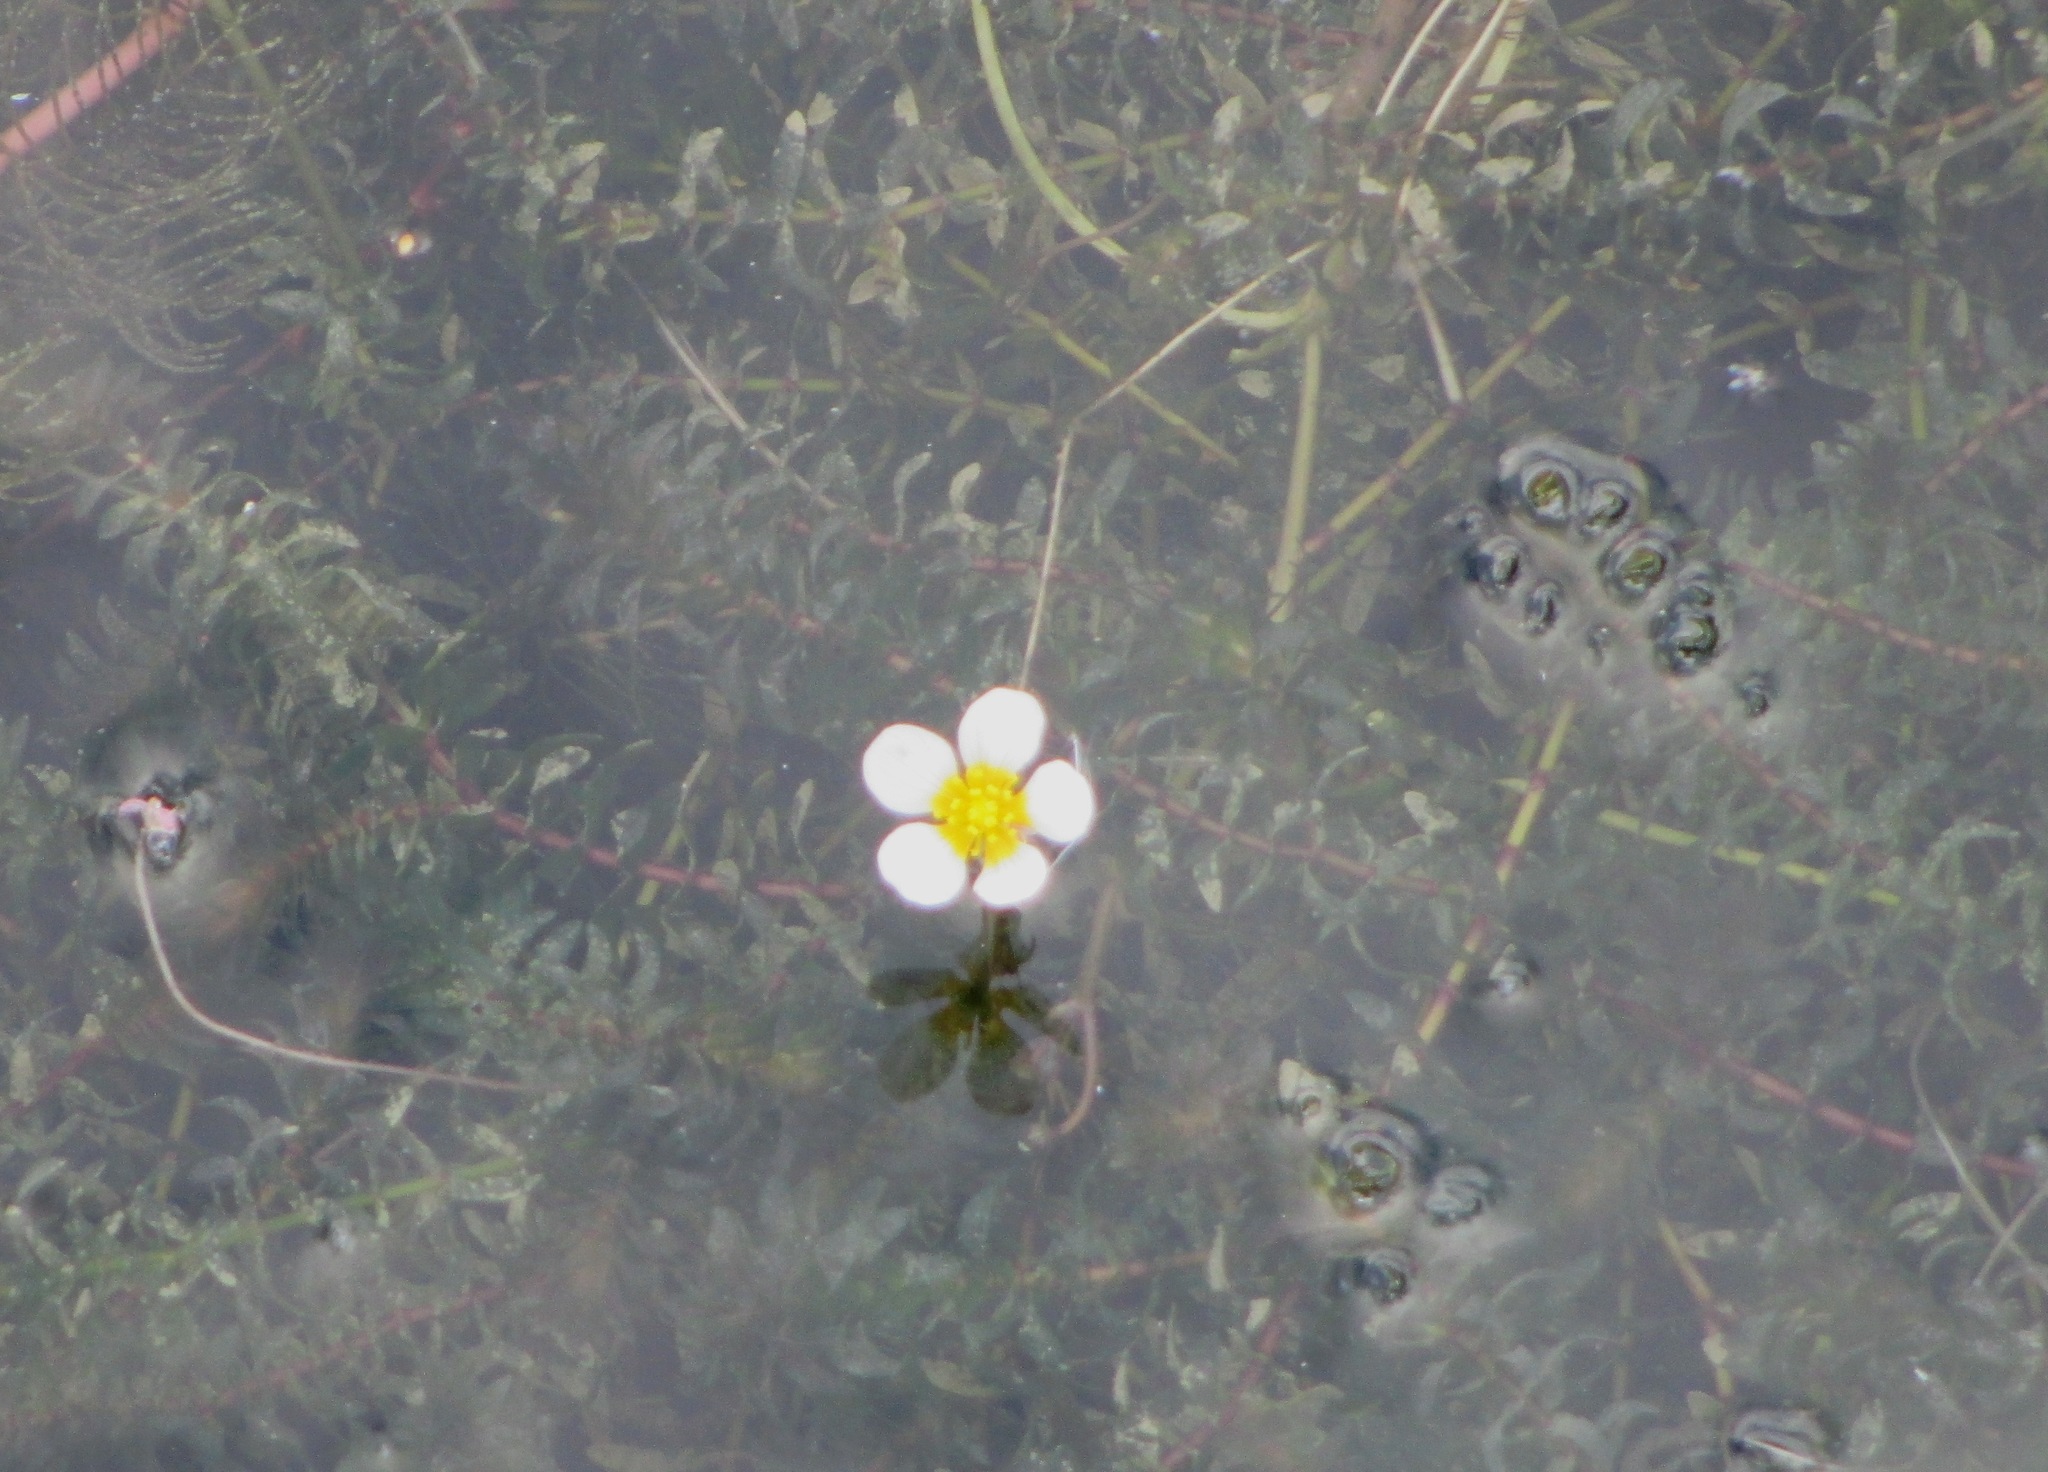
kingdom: Plantae
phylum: Tracheophyta
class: Magnoliopsida
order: Ranunculales
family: Ranunculaceae
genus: Ranunculus
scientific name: Ranunculus circinatus
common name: Fan-leaved water-crowfoot
